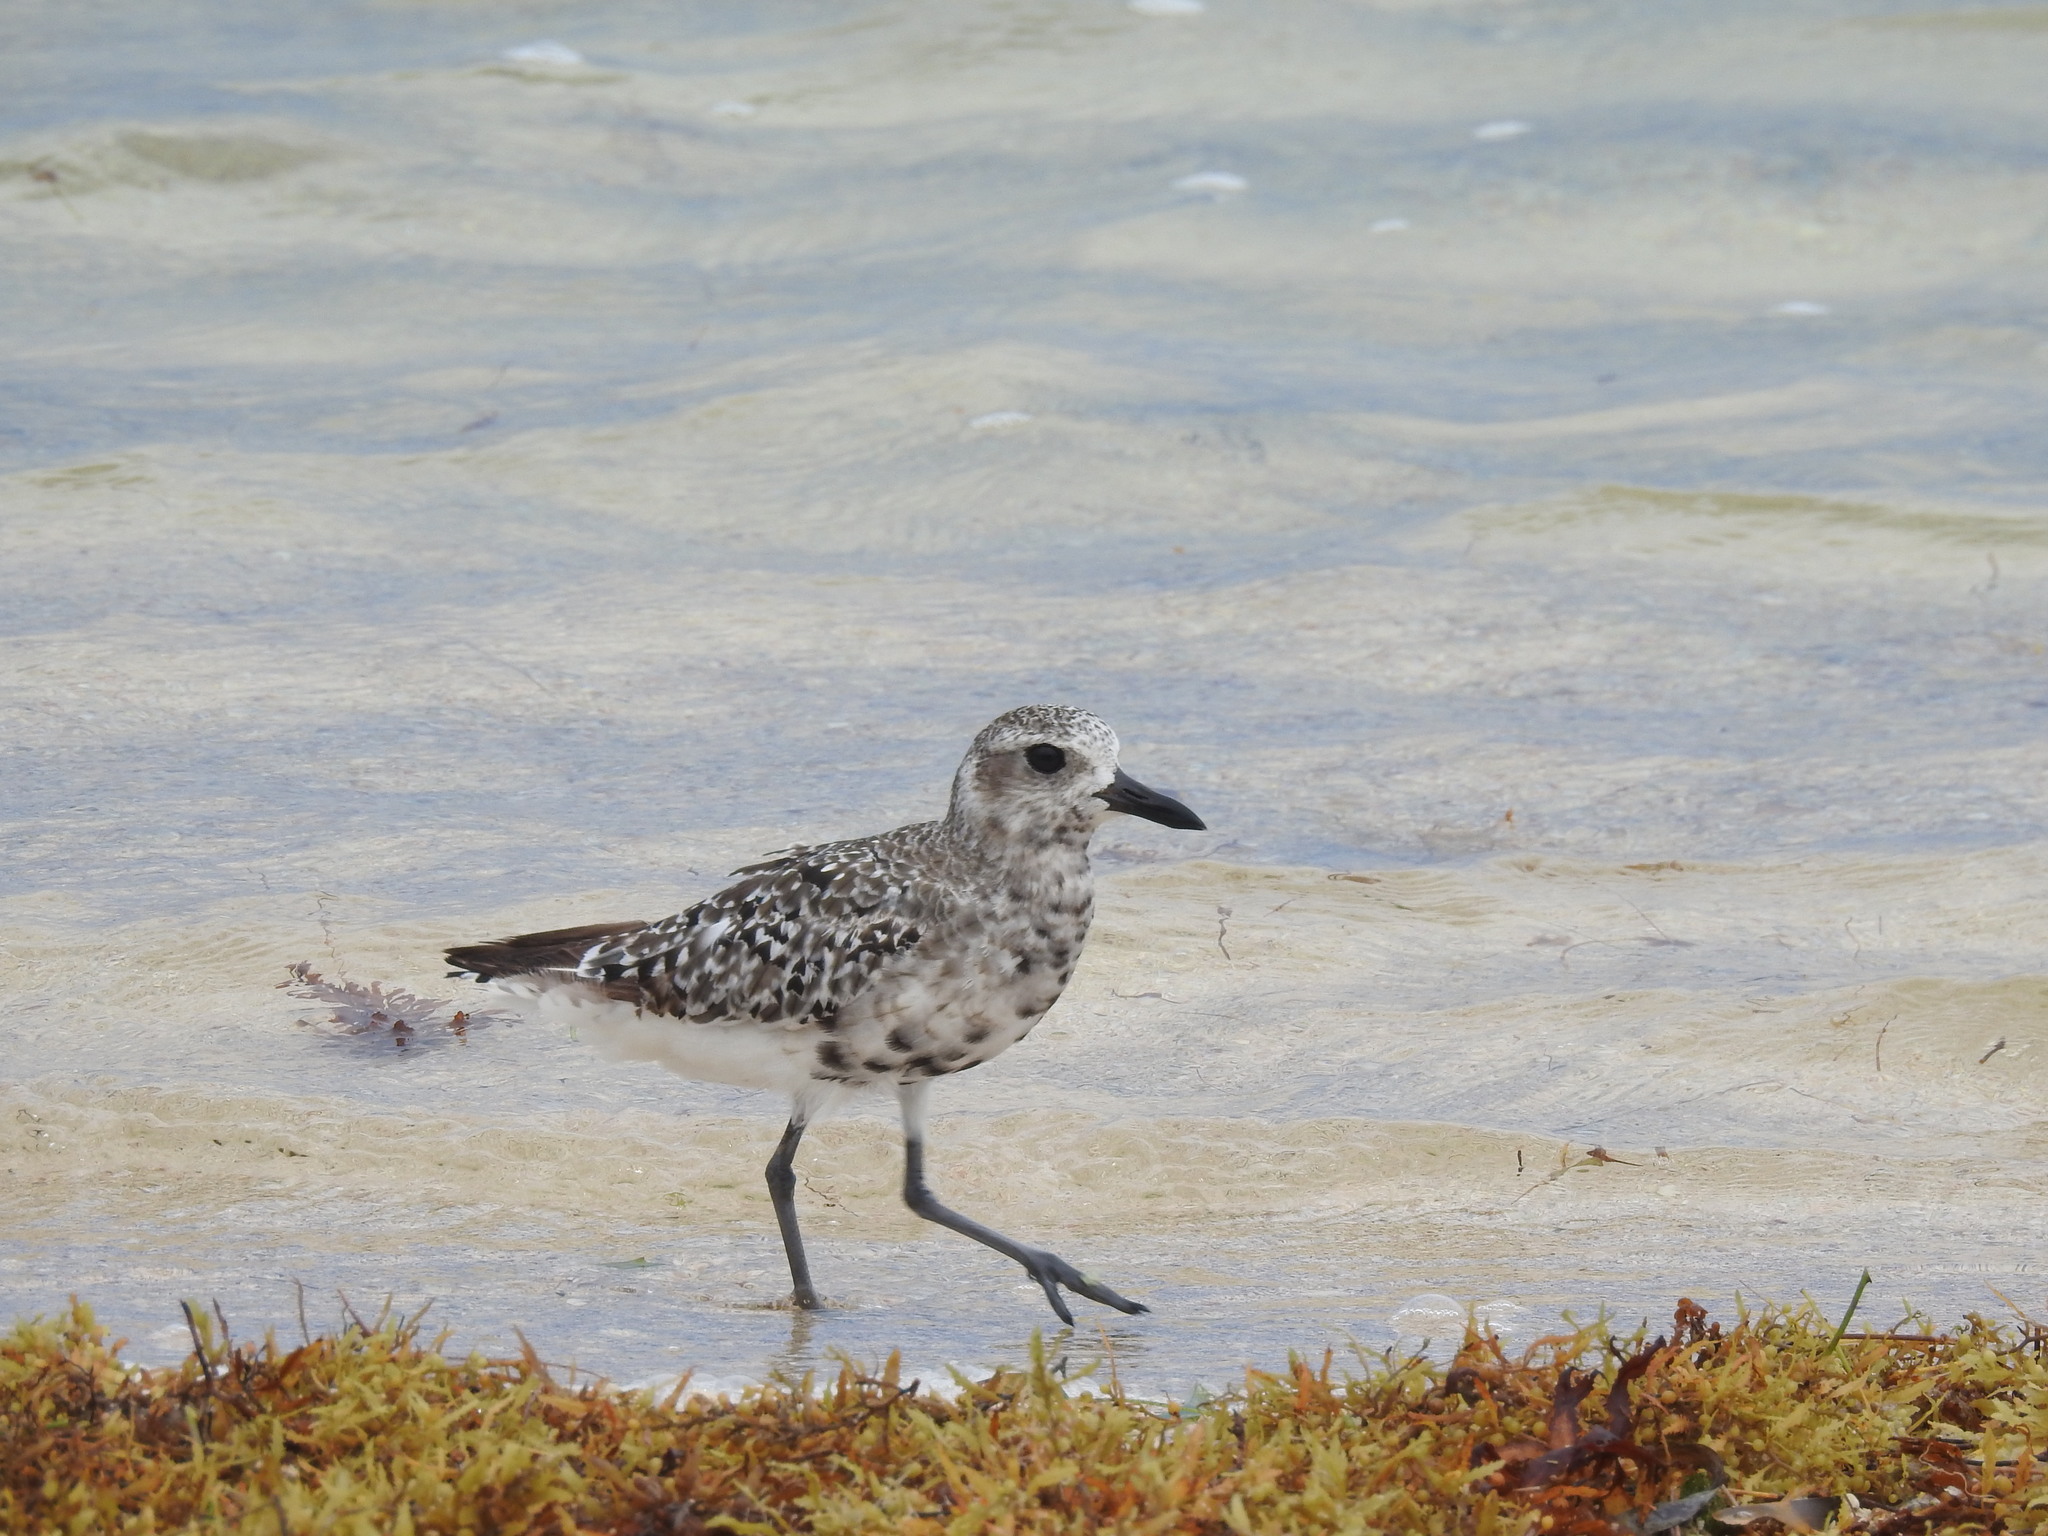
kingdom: Animalia
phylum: Chordata
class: Aves
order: Charadriiformes
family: Charadriidae
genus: Pluvialis
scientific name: Pluvialis squatarola
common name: Grey plover
